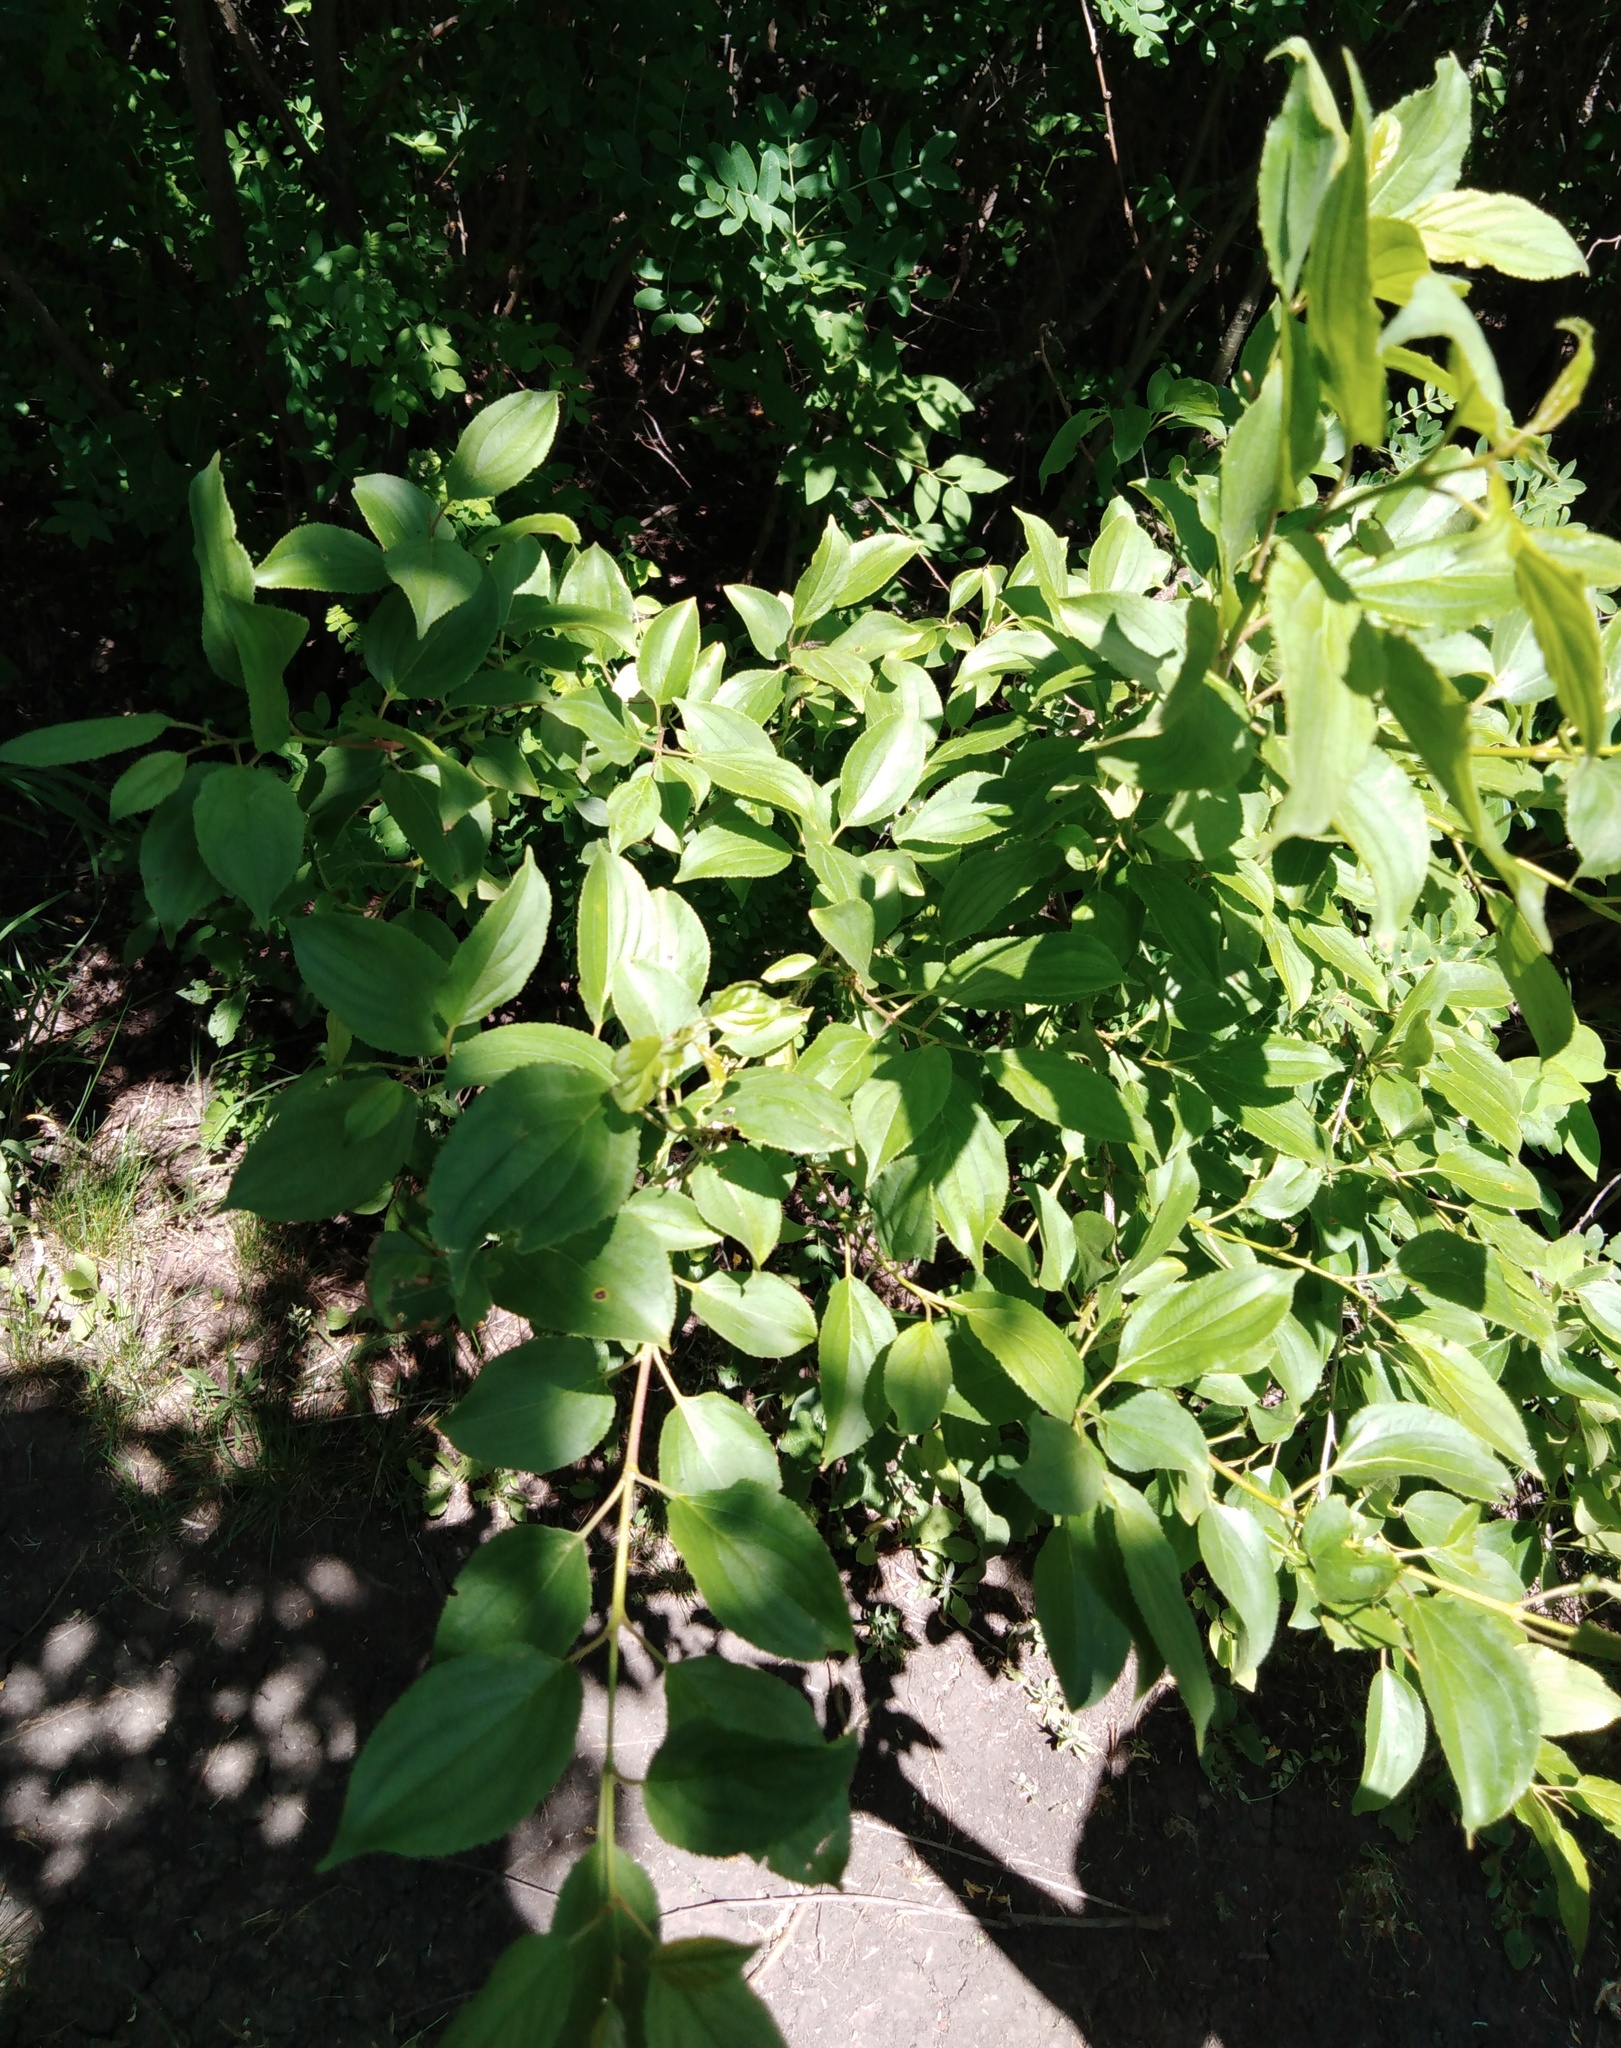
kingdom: Plantae
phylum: Tracheophyta
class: Magnoliopsida
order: Rosales
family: Rhamnaceae
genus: Rhamnus
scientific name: Rhamnus cathartica
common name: Common buckthorn
